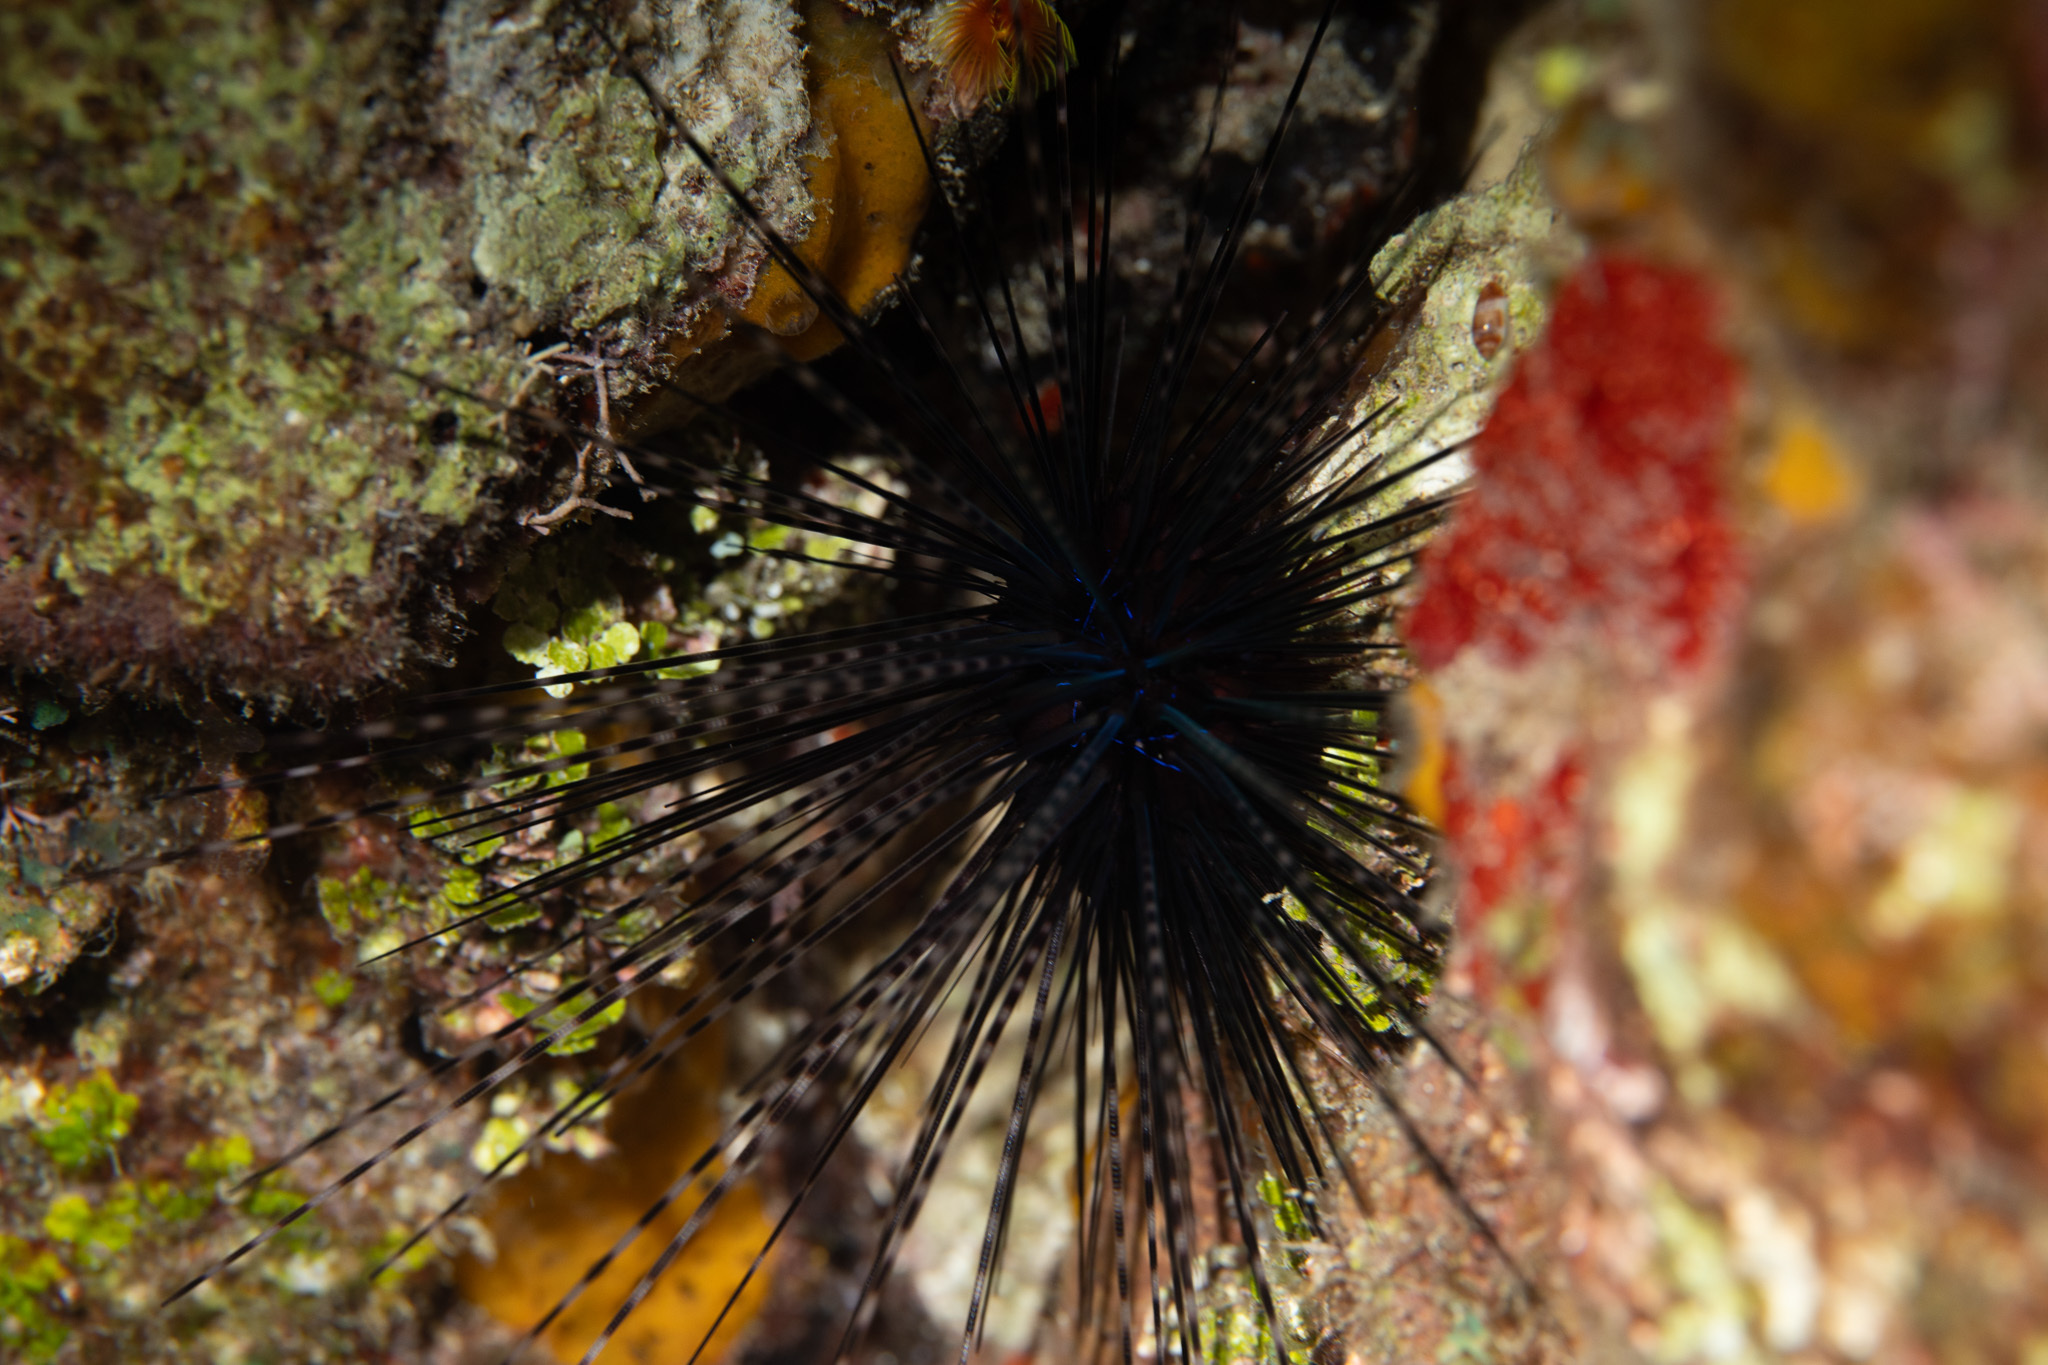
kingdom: Animalia
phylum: Echinodermata
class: Echinoidea
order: Diadematoida
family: Diadematidae
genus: Diadema
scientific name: Diadema antillarum
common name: Spiny urchin
